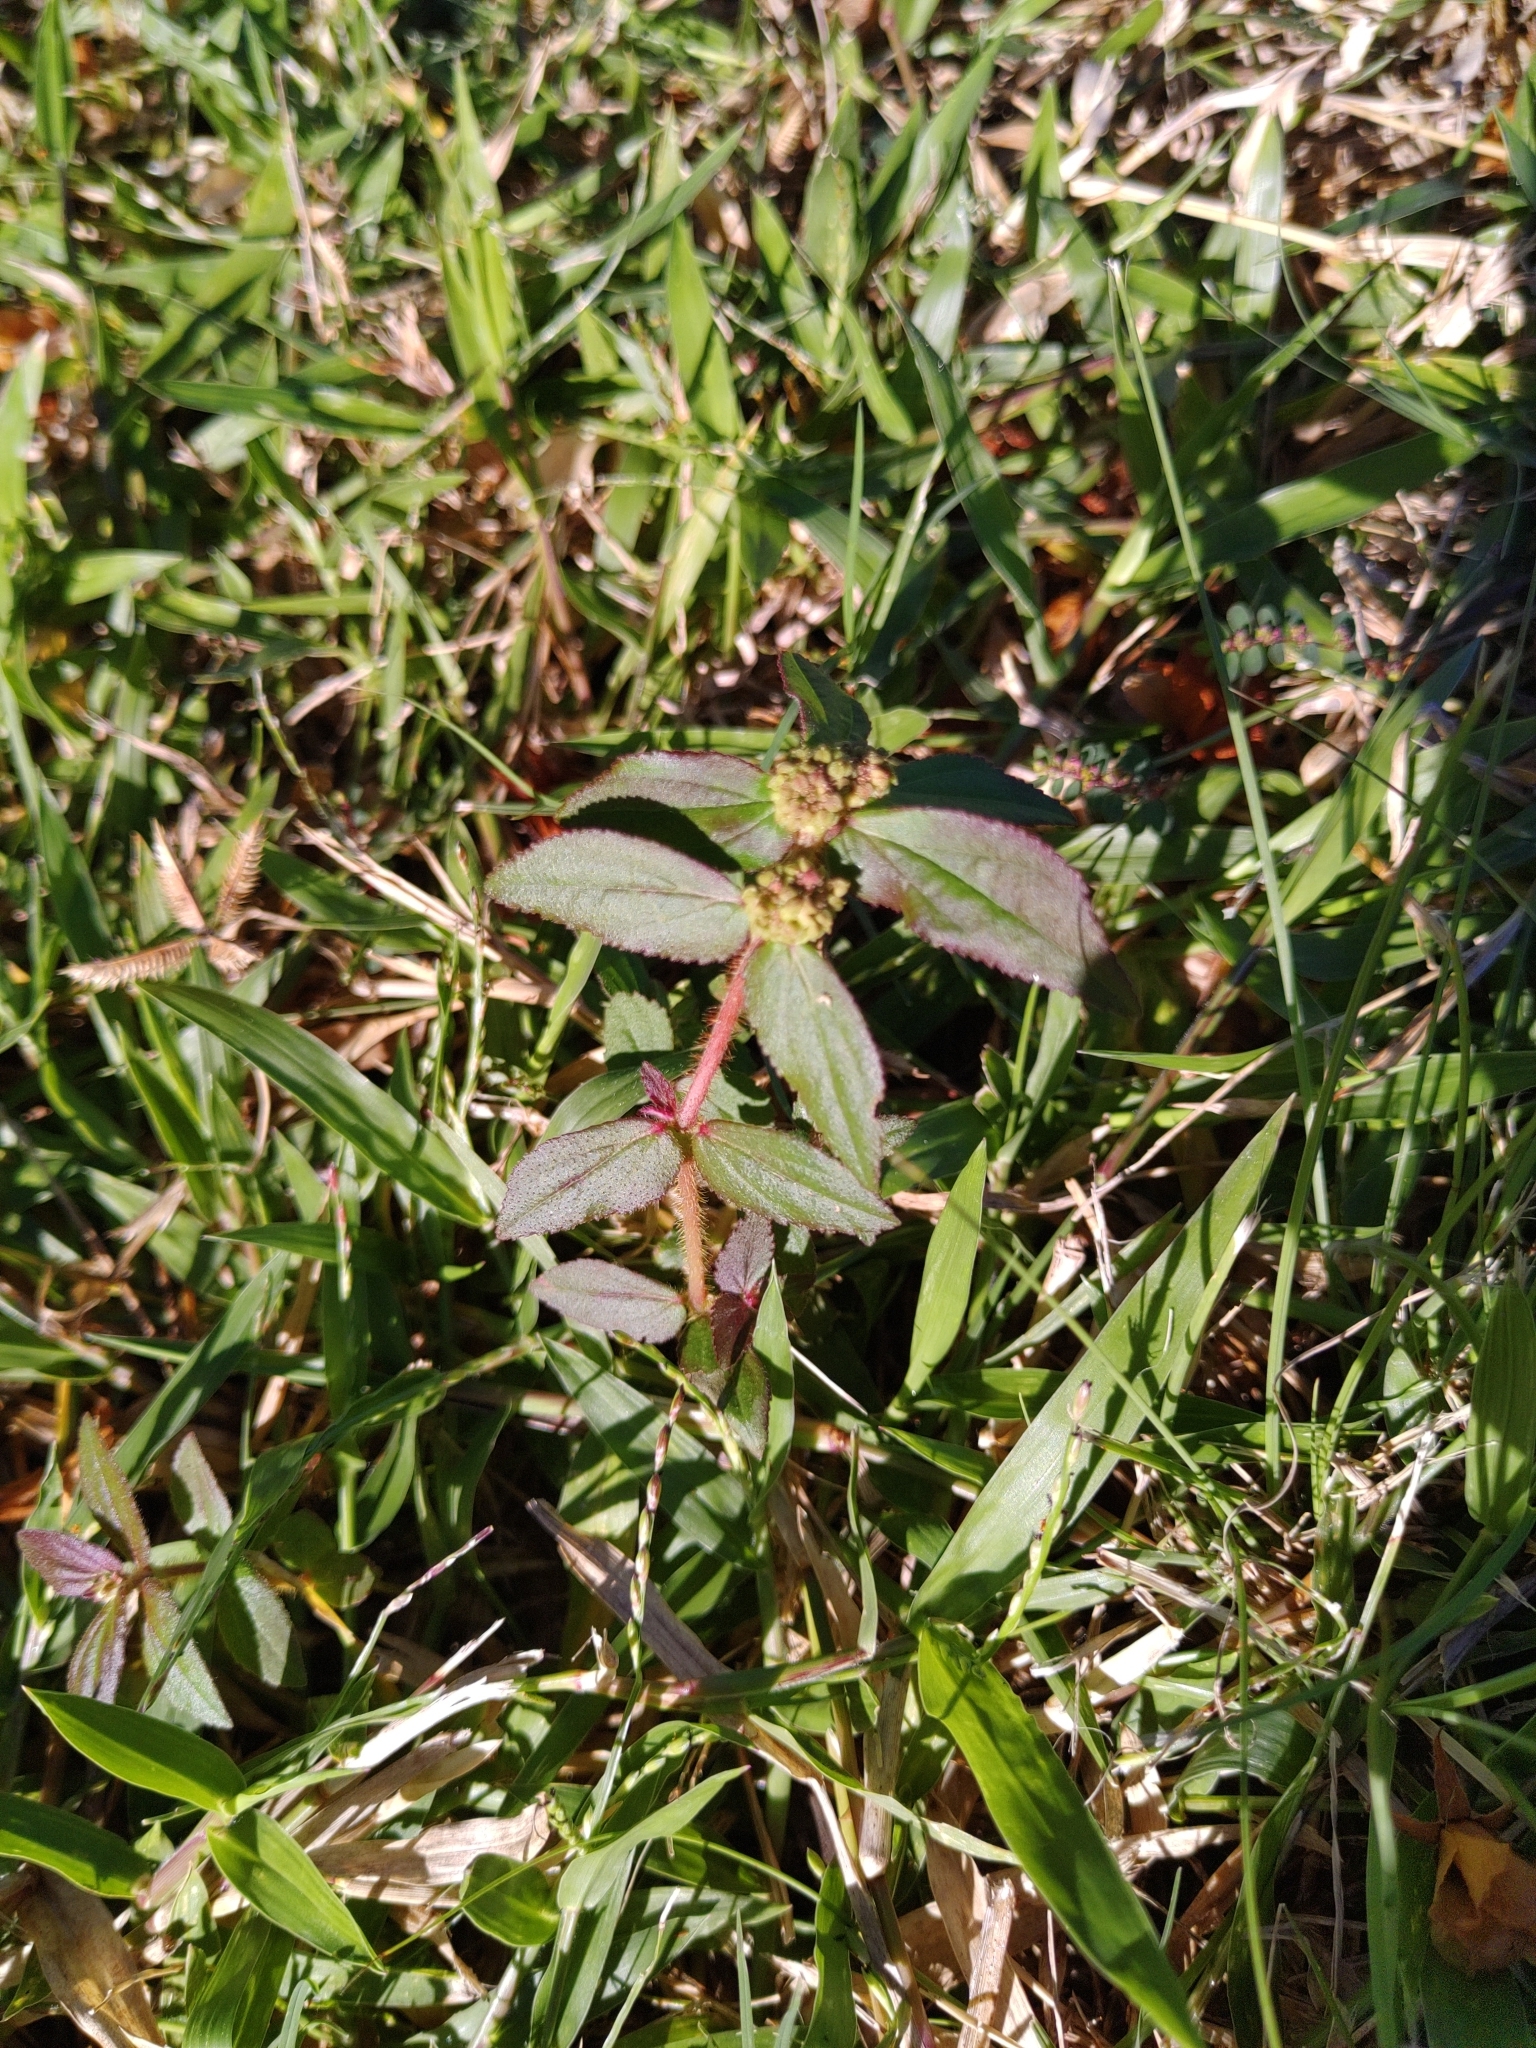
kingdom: Plantae
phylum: Tracheophyta
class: Magnoliopsida
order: Malpighiales
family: Euphorbiaceae
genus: Euphorbia
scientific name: Euphorbia hirta
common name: Pillpod sandmat
